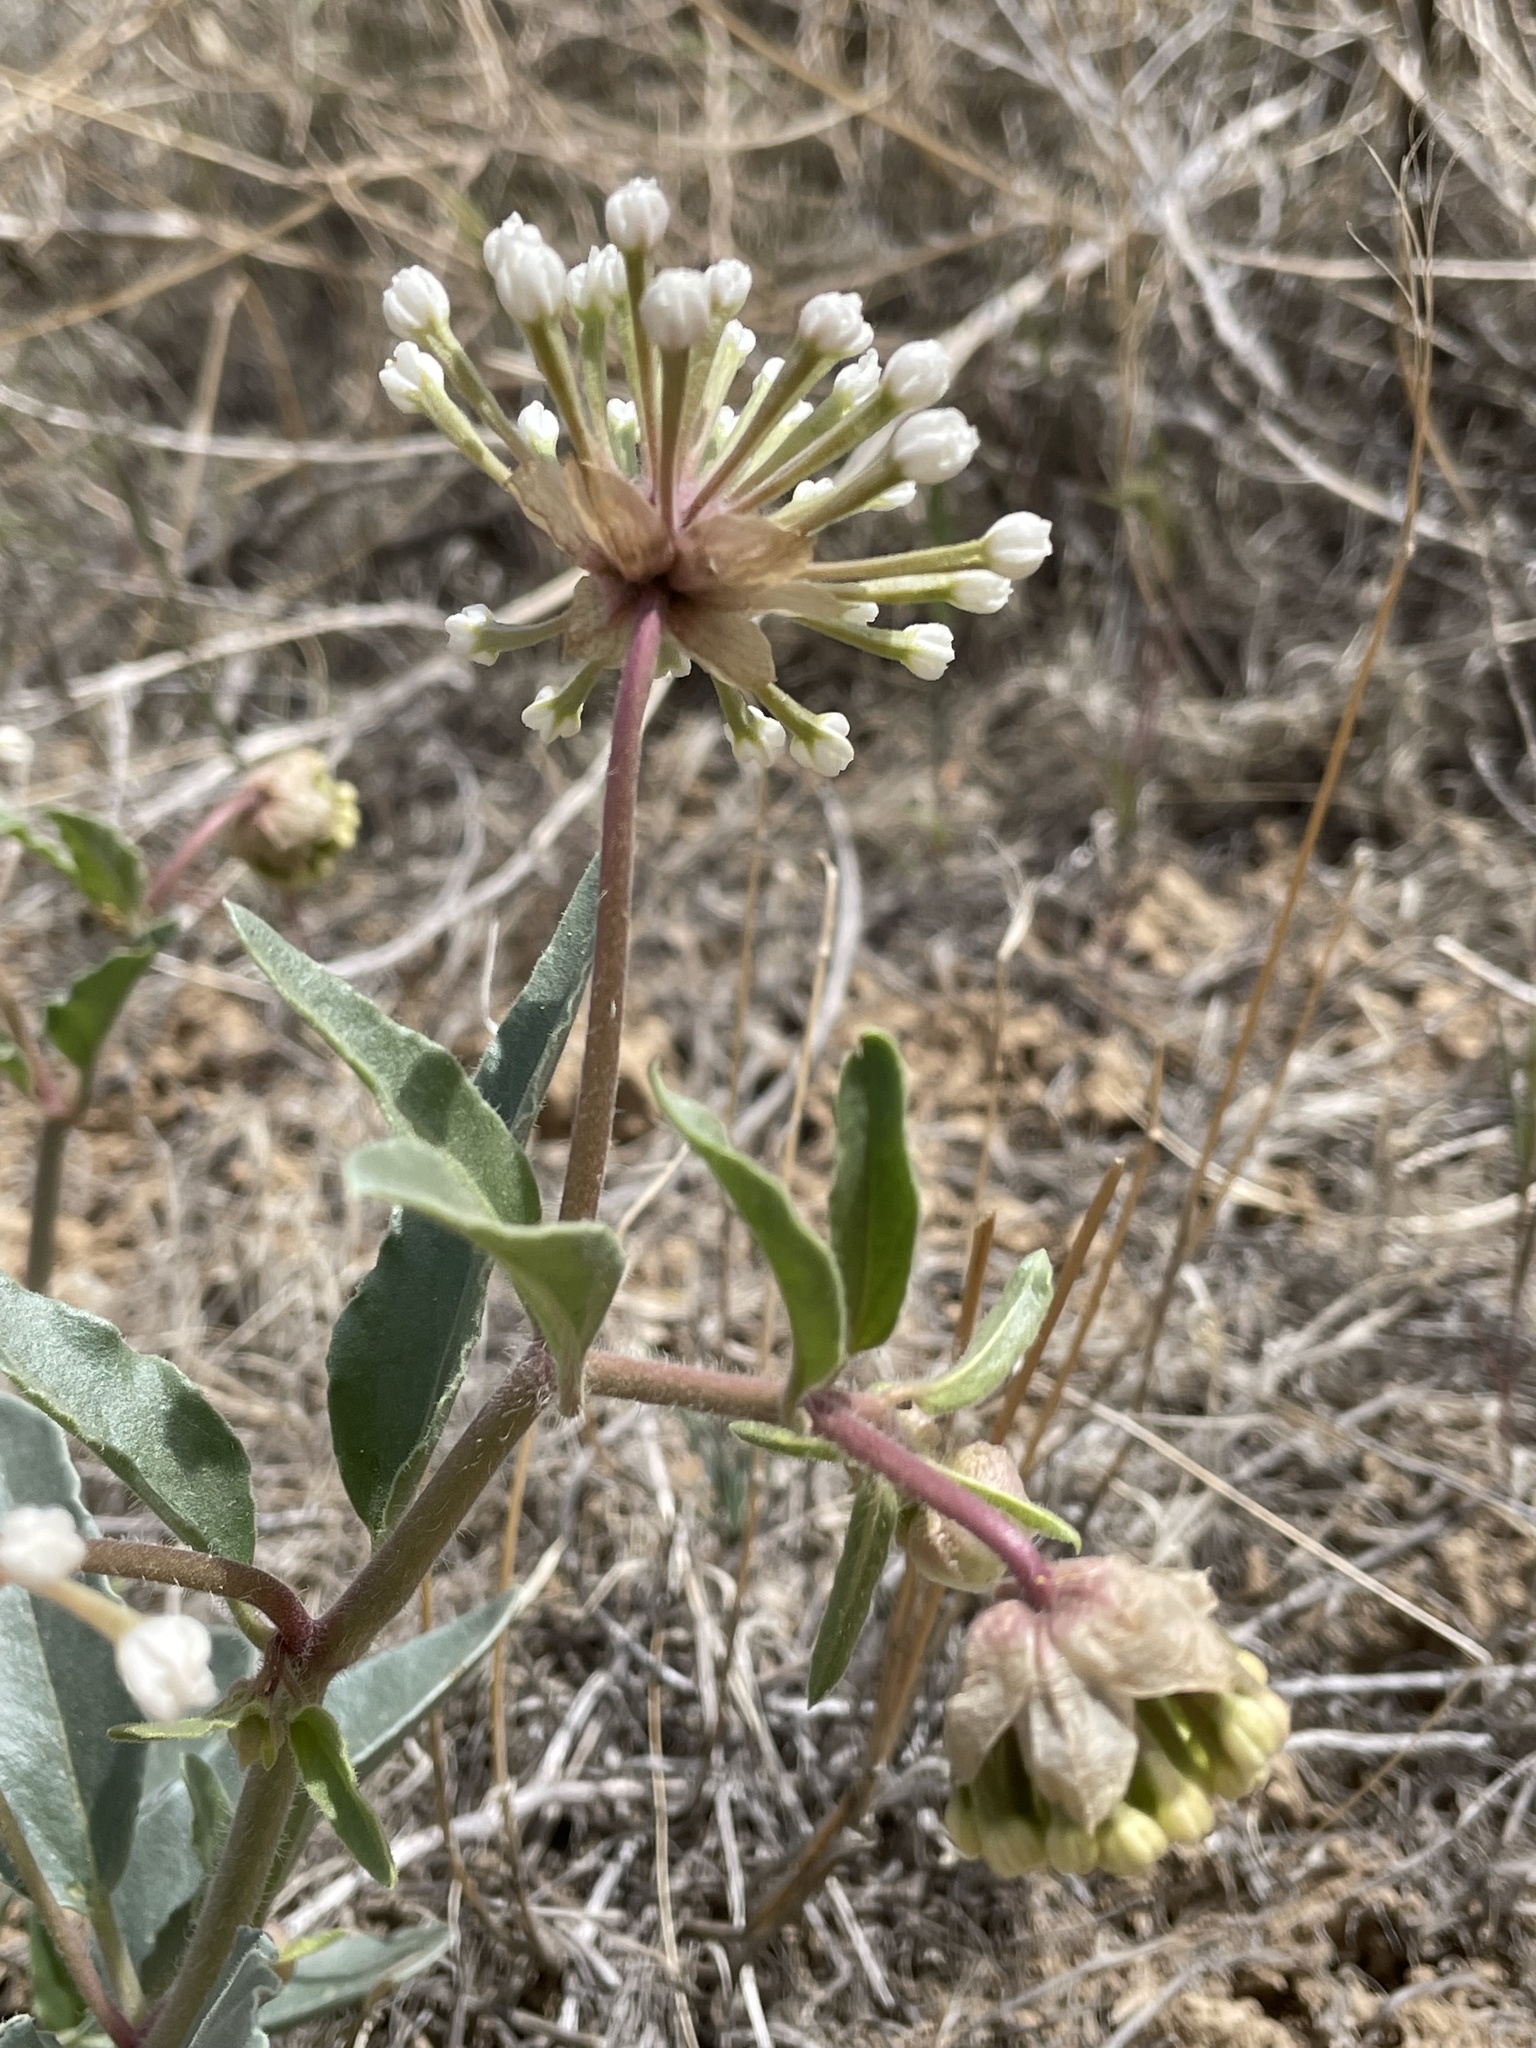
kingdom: Plantae
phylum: Tracheophyta
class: Magnoliopsida
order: Caryophyllales
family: Nyctaginaceae
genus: Abronia
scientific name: Abronia fragrans
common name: Fragrant sand-verbena
